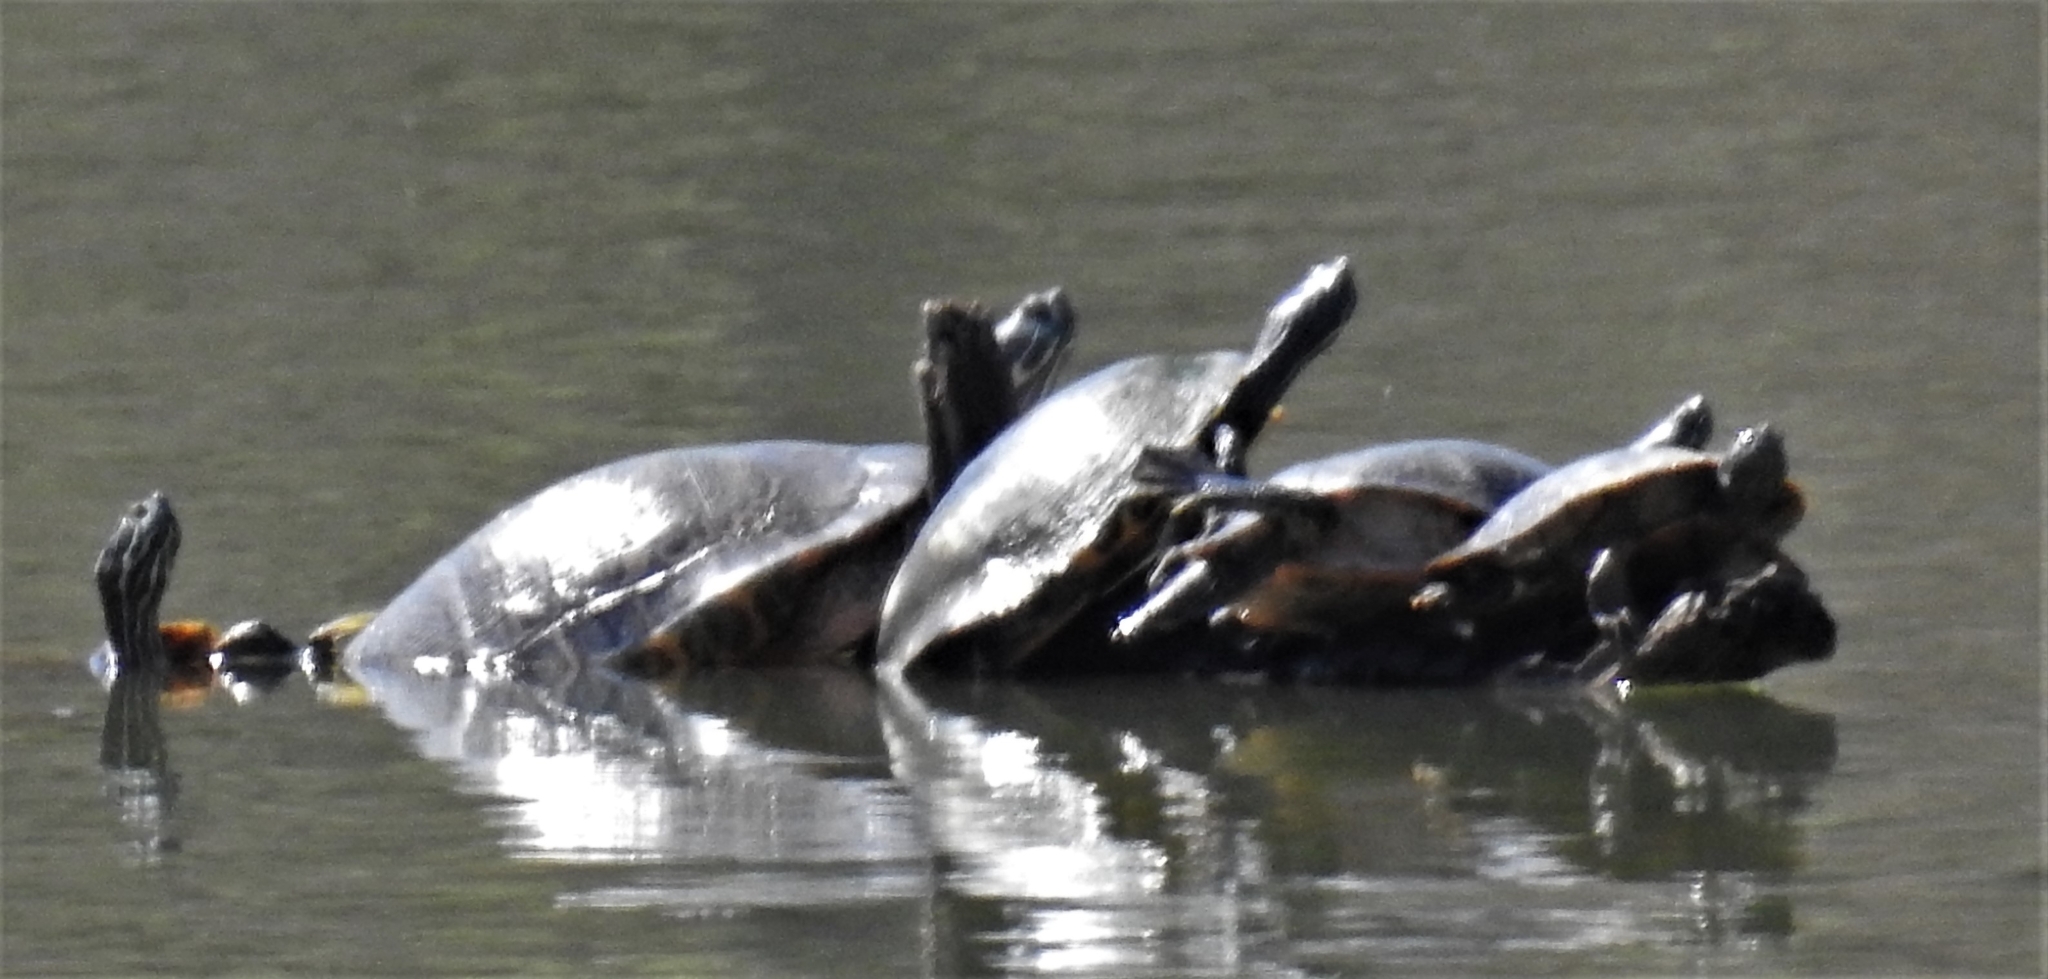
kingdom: Animalia
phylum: Chordata
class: Testudines
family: Emydidae
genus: Pseudemys
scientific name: Pseudemys concinna
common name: Eastern river cooter
